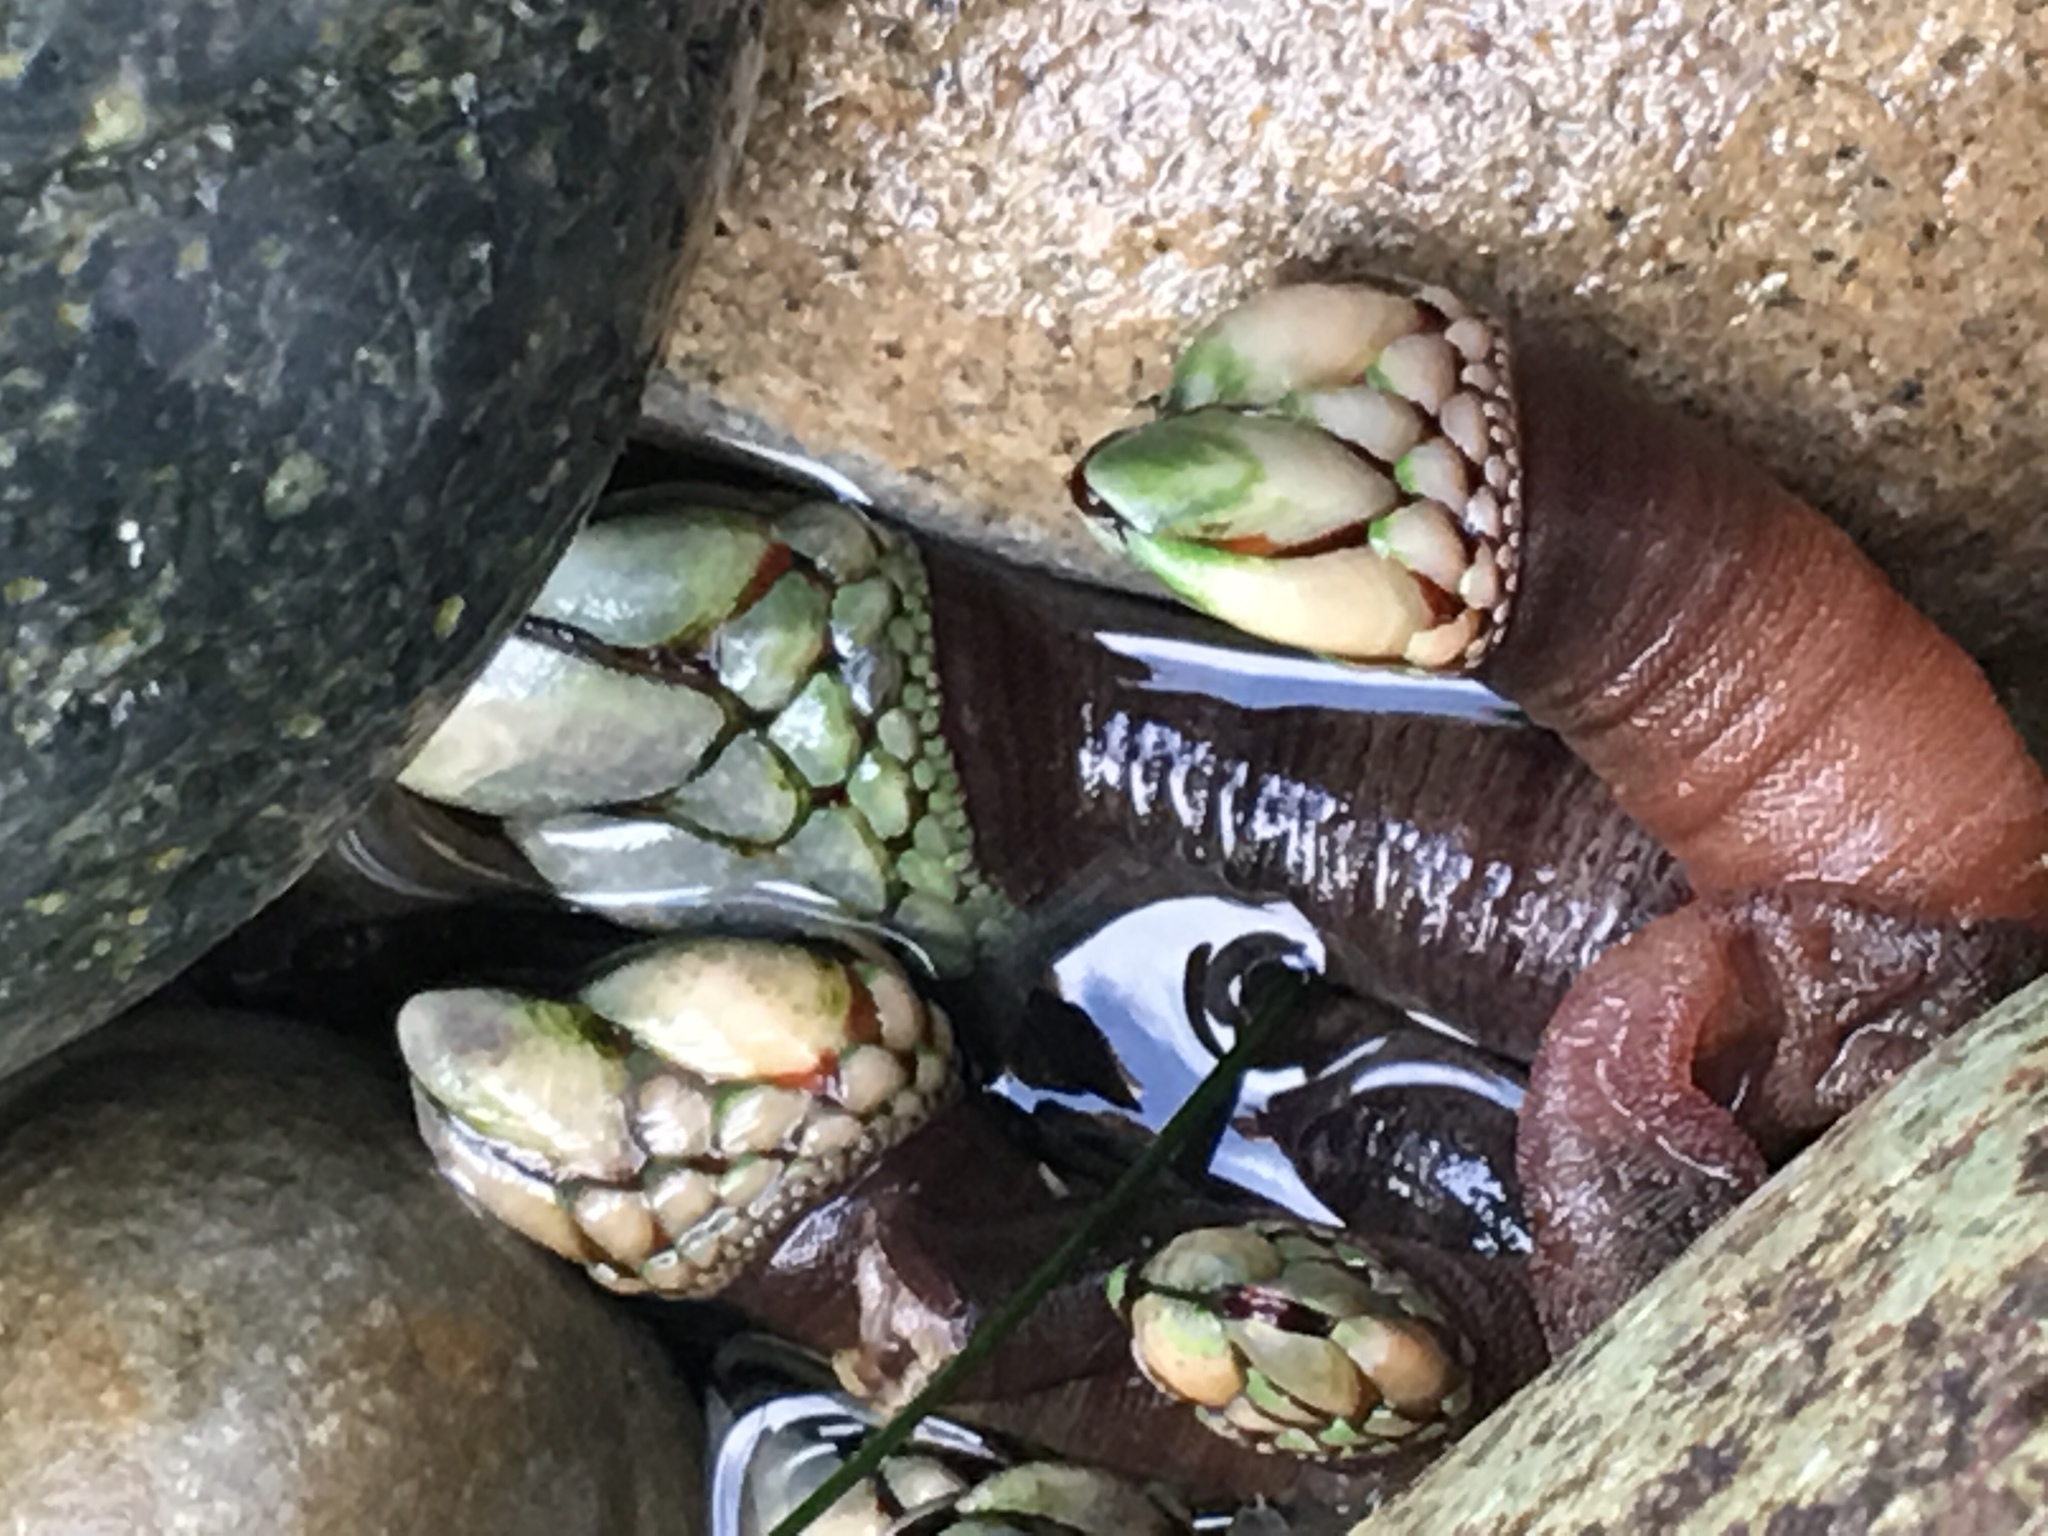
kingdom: Animalia
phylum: Arthropoda
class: Maxillopoda
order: Pedunculata
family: Pollicipedidae
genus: Pollicipes
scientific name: Pollicipes polymerus
